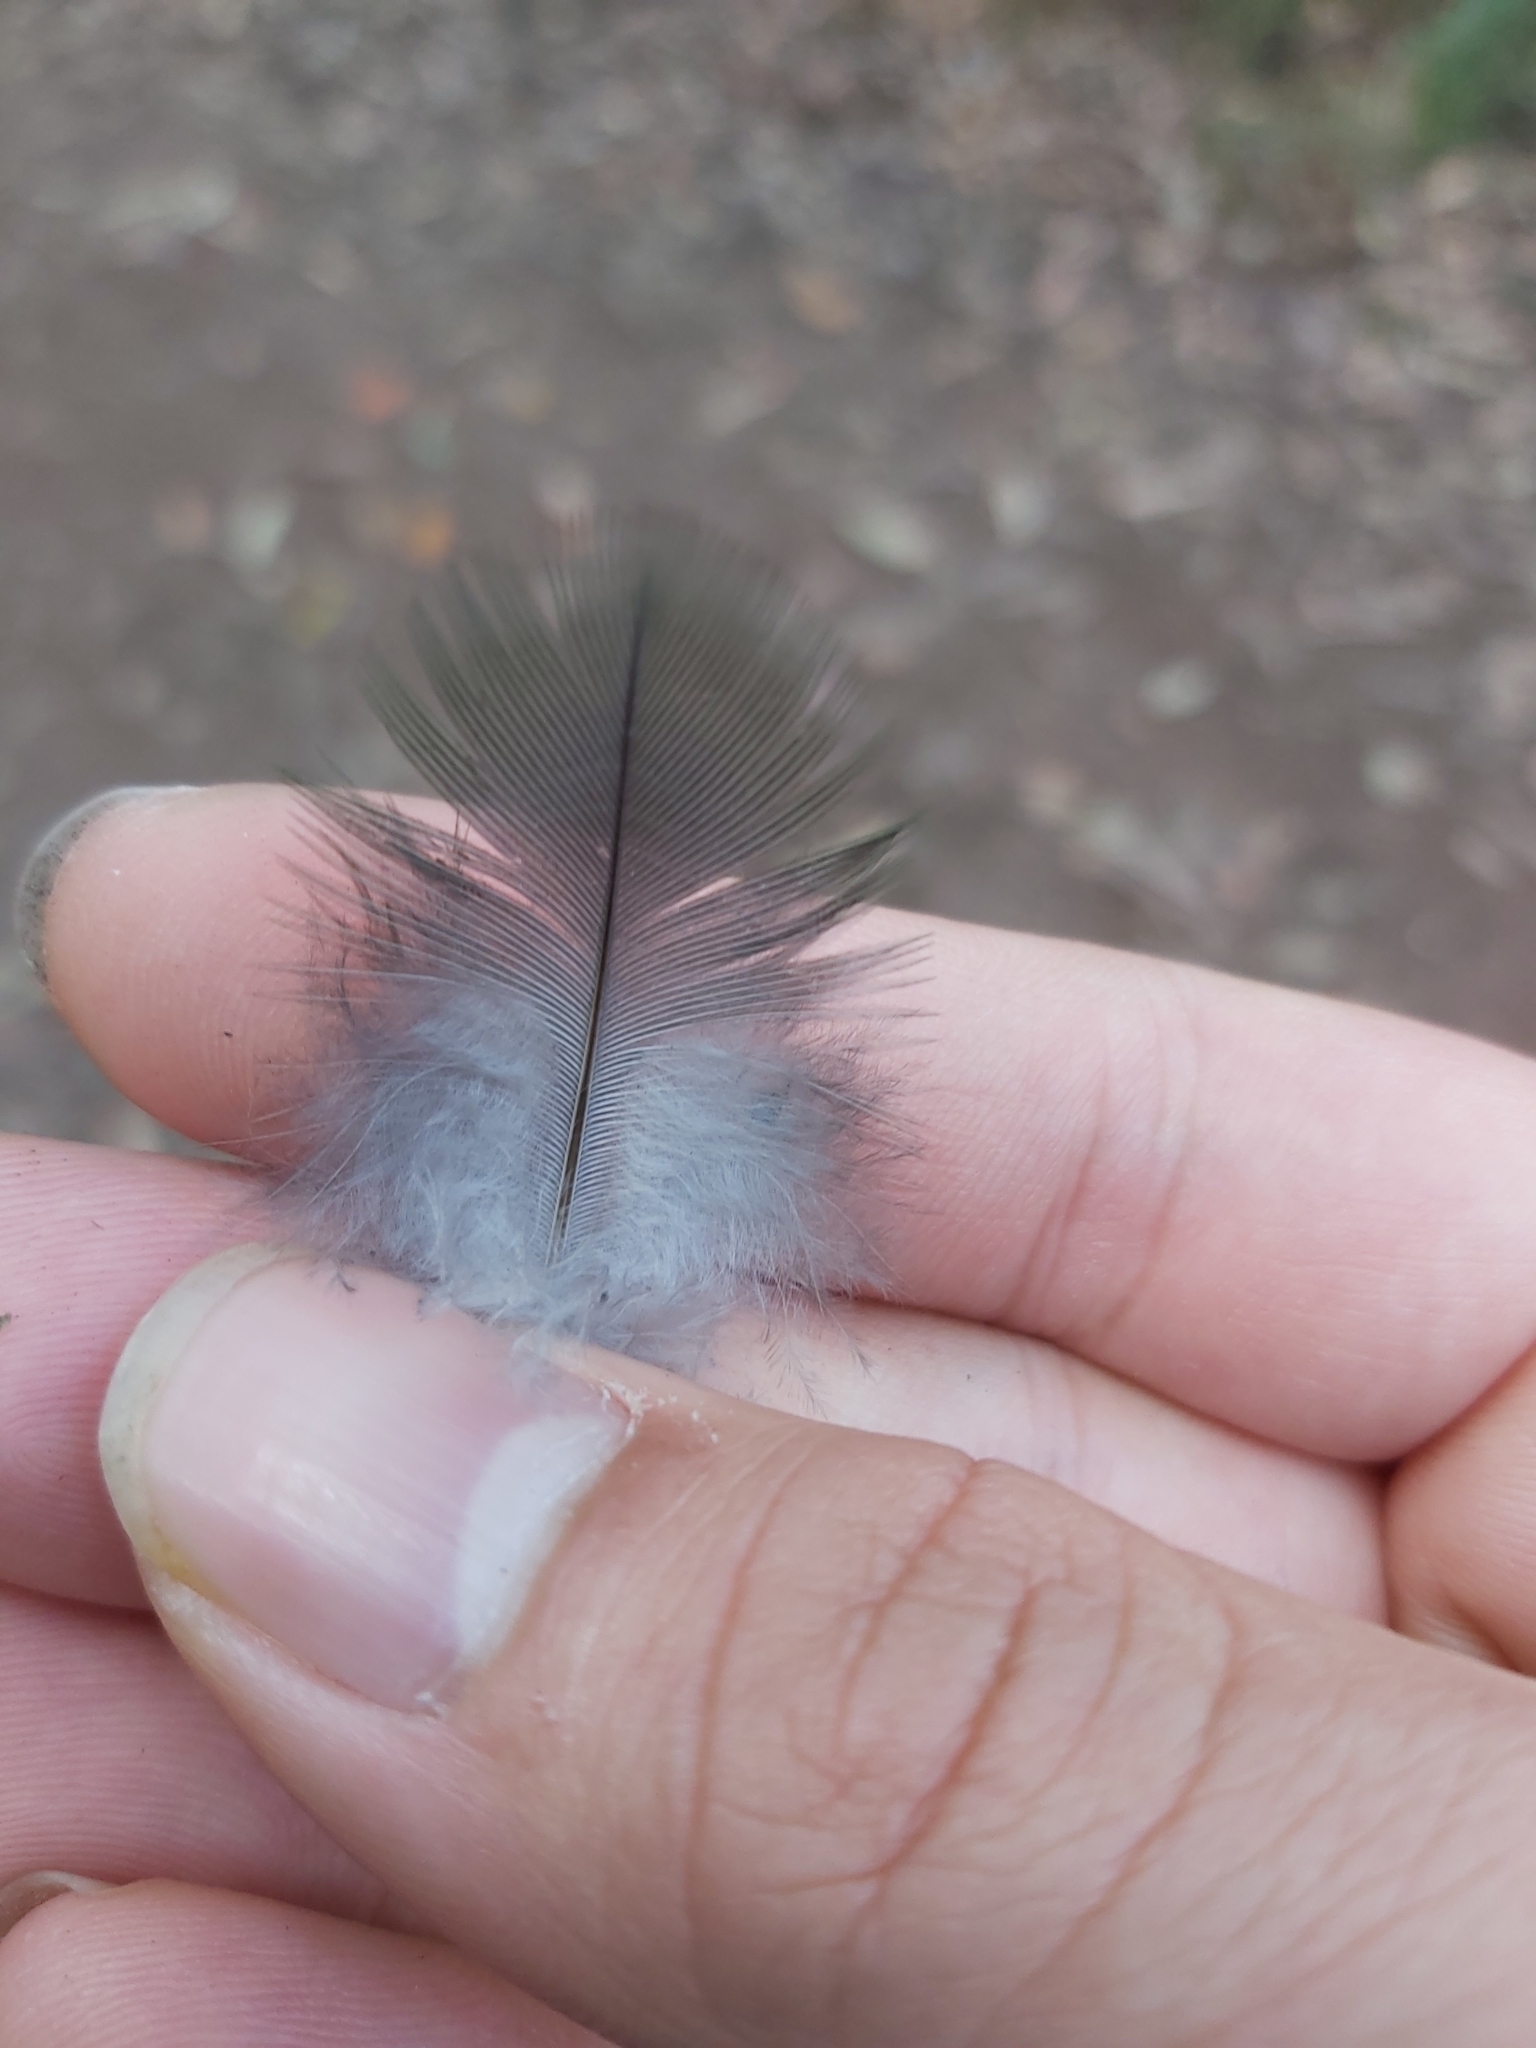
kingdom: Animalia
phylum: Chordata
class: Aves
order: Psittaciformes
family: Psittacidae
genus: Alisterus
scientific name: Alisterus scapularis
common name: Australian king parrot
